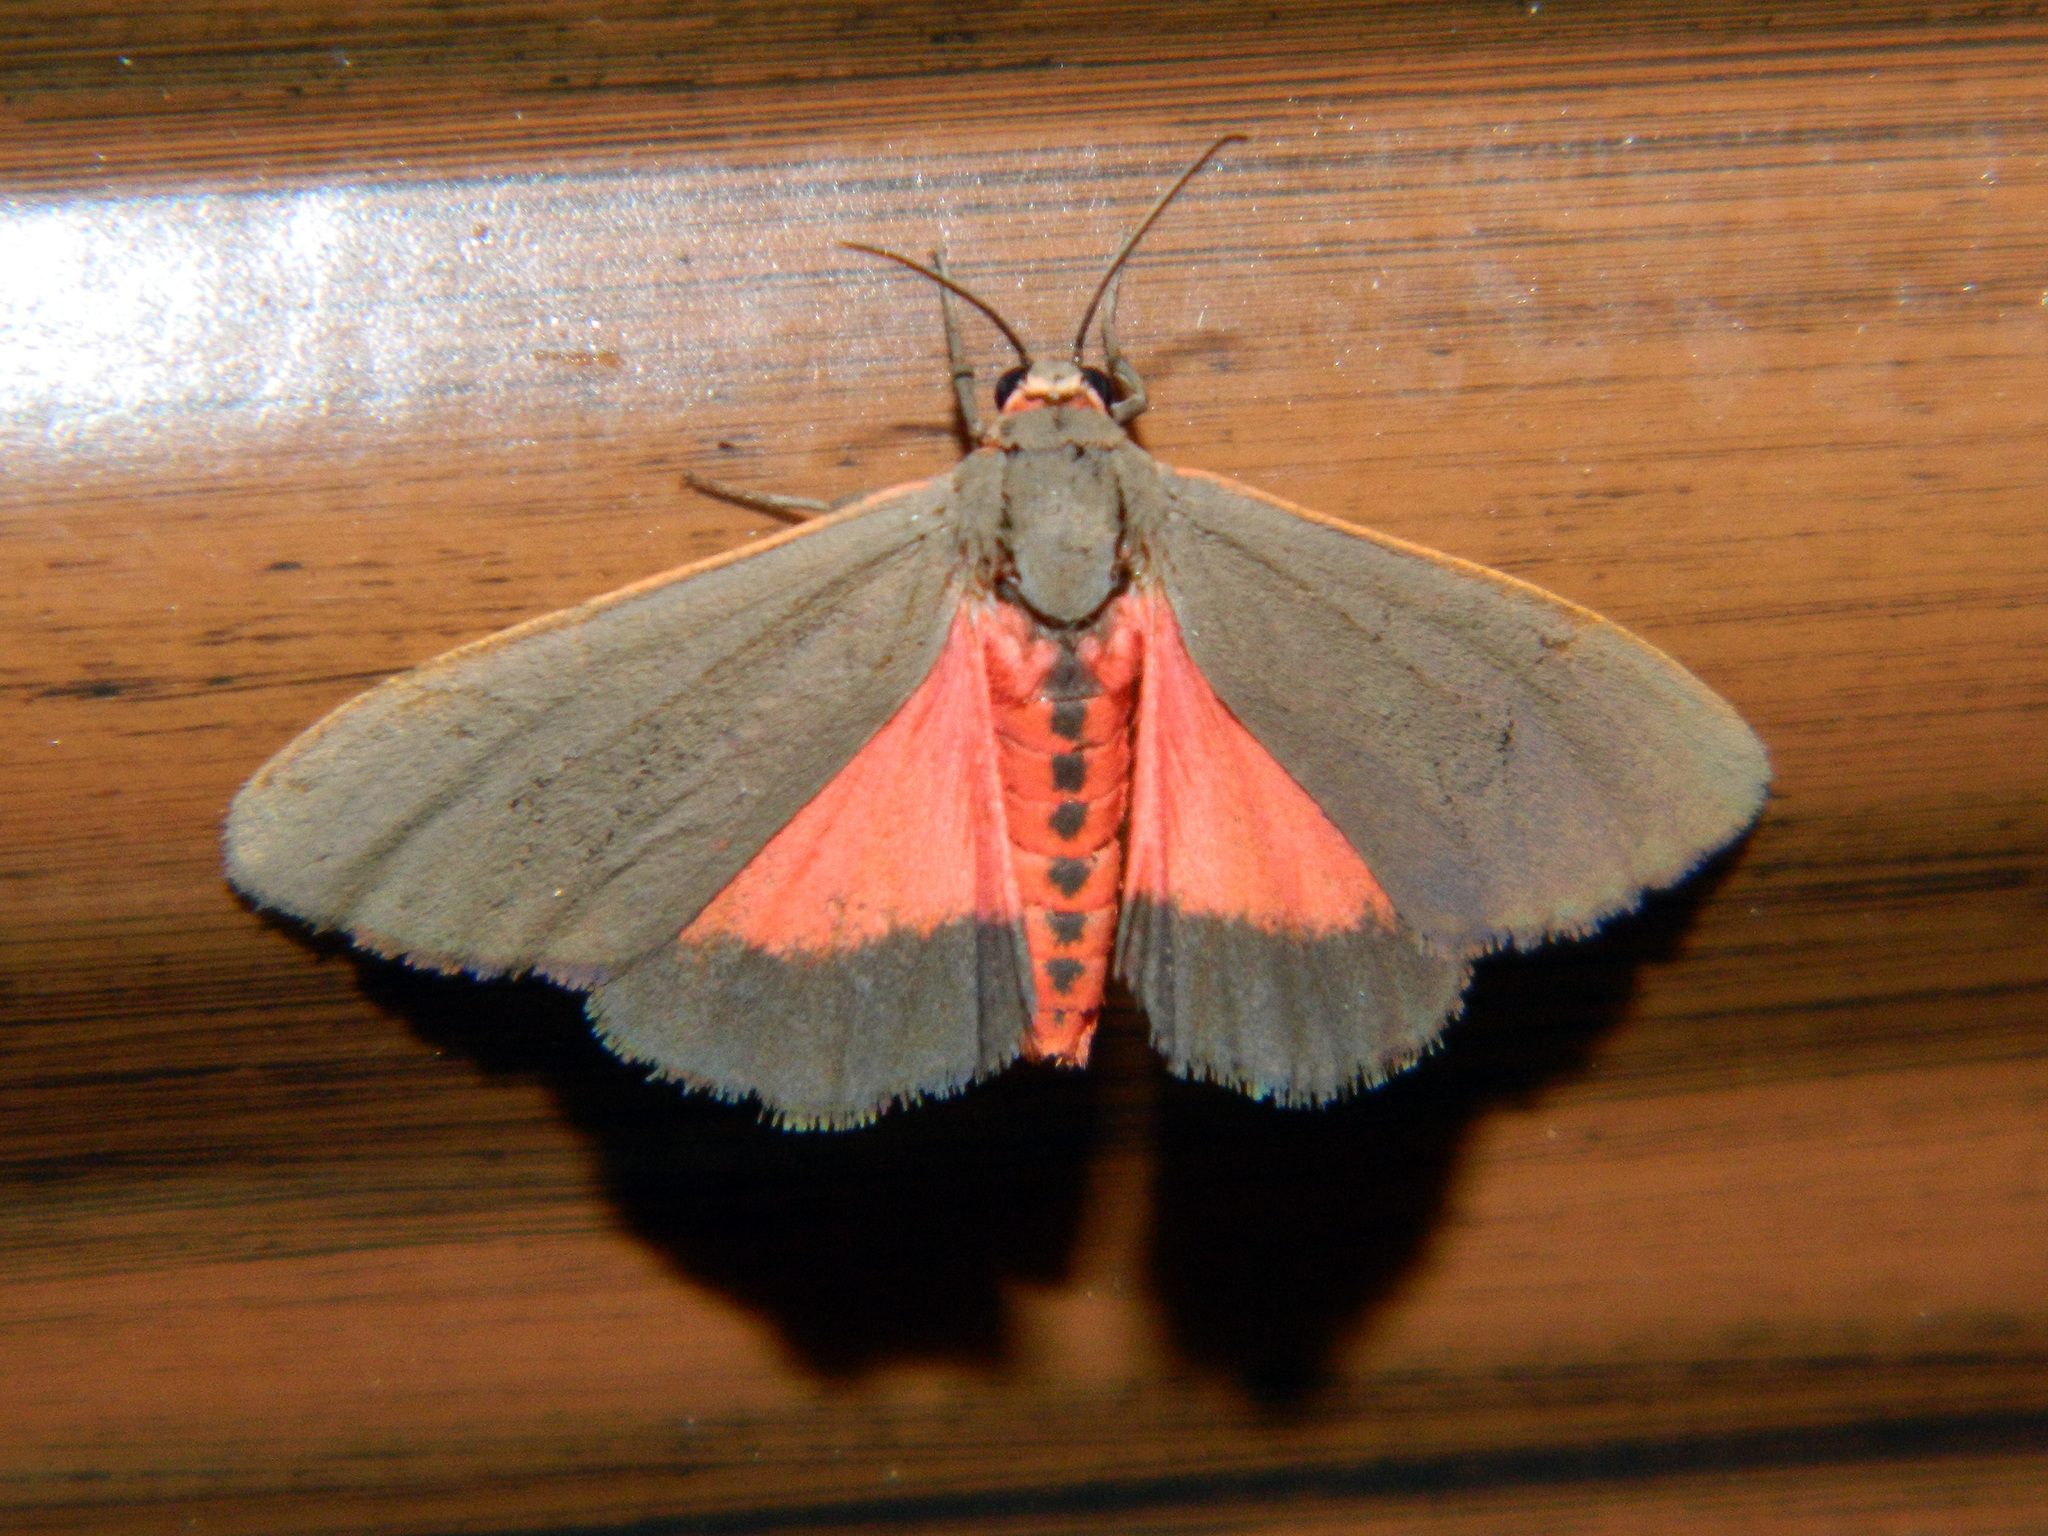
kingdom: Animalia
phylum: Arthropoda
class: Insecta
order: Lepidoptera
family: Erebidae
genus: Virbia
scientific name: Virbia laeta
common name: Joyful holomelina moth
